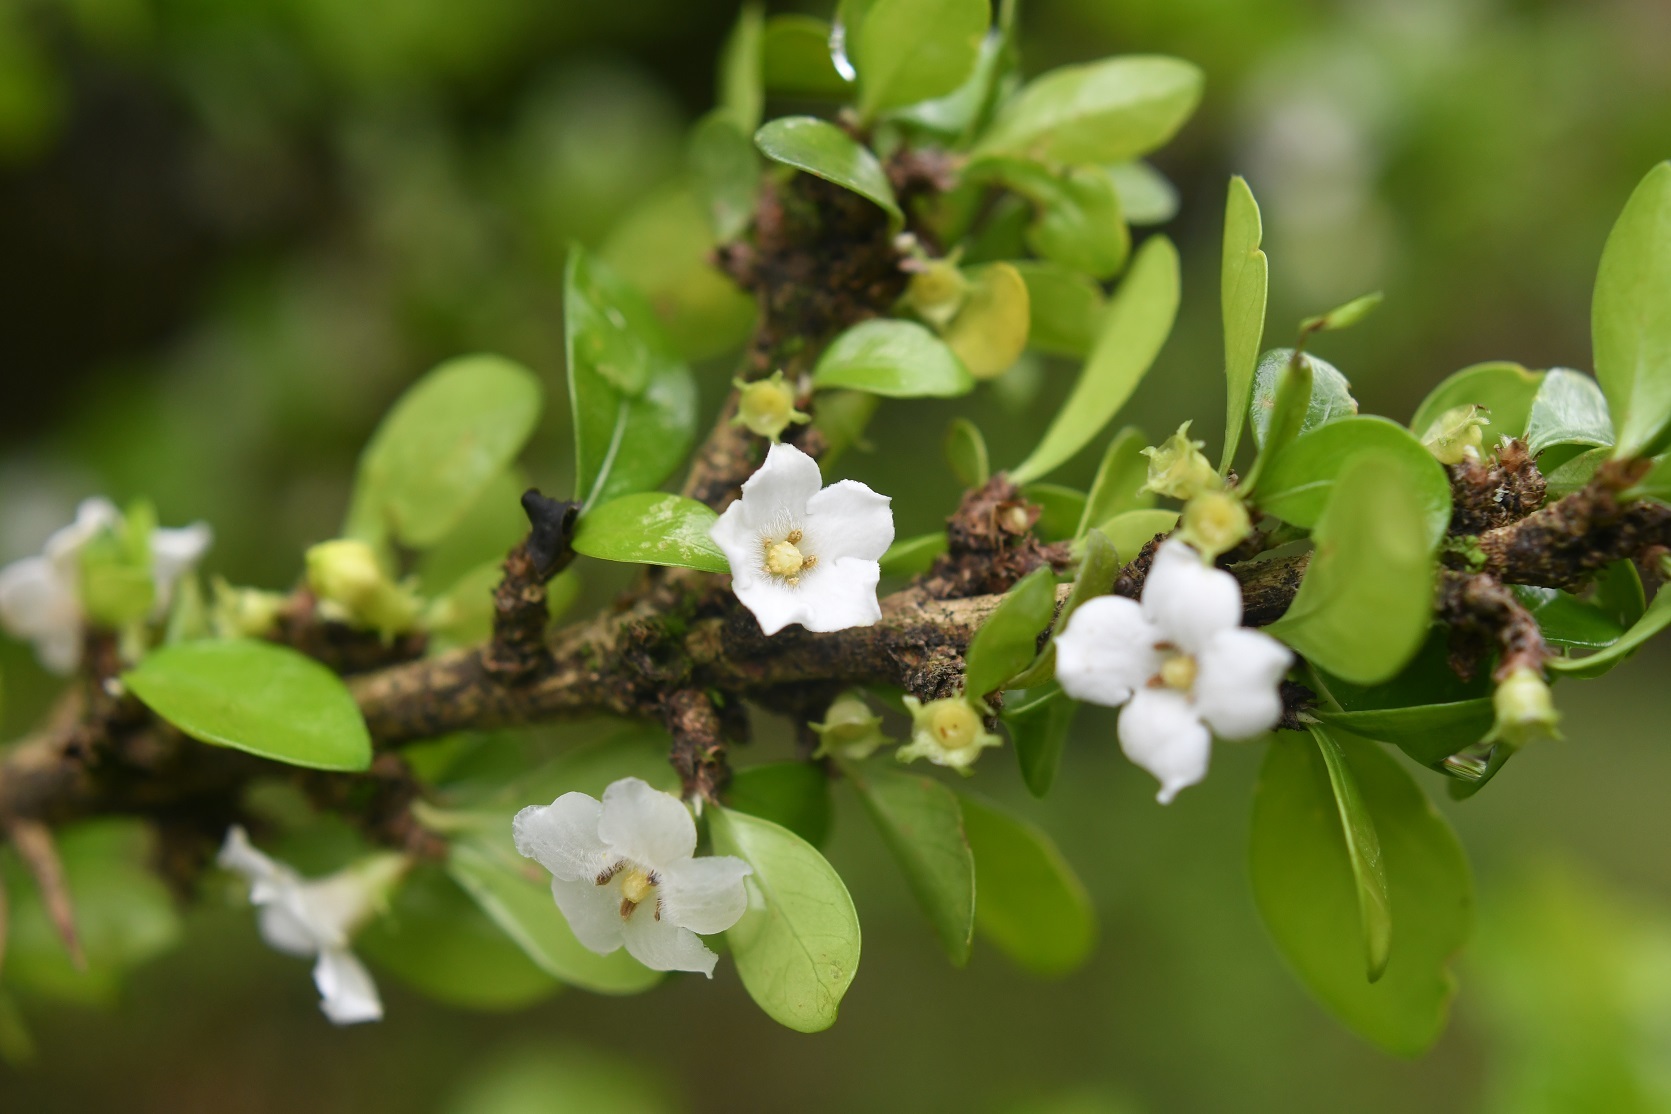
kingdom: Plantae
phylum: Tracheophyta
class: Magnoliopsida
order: Gentianales
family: Rubiaceae
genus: Randia
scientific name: Randia chiapensis
